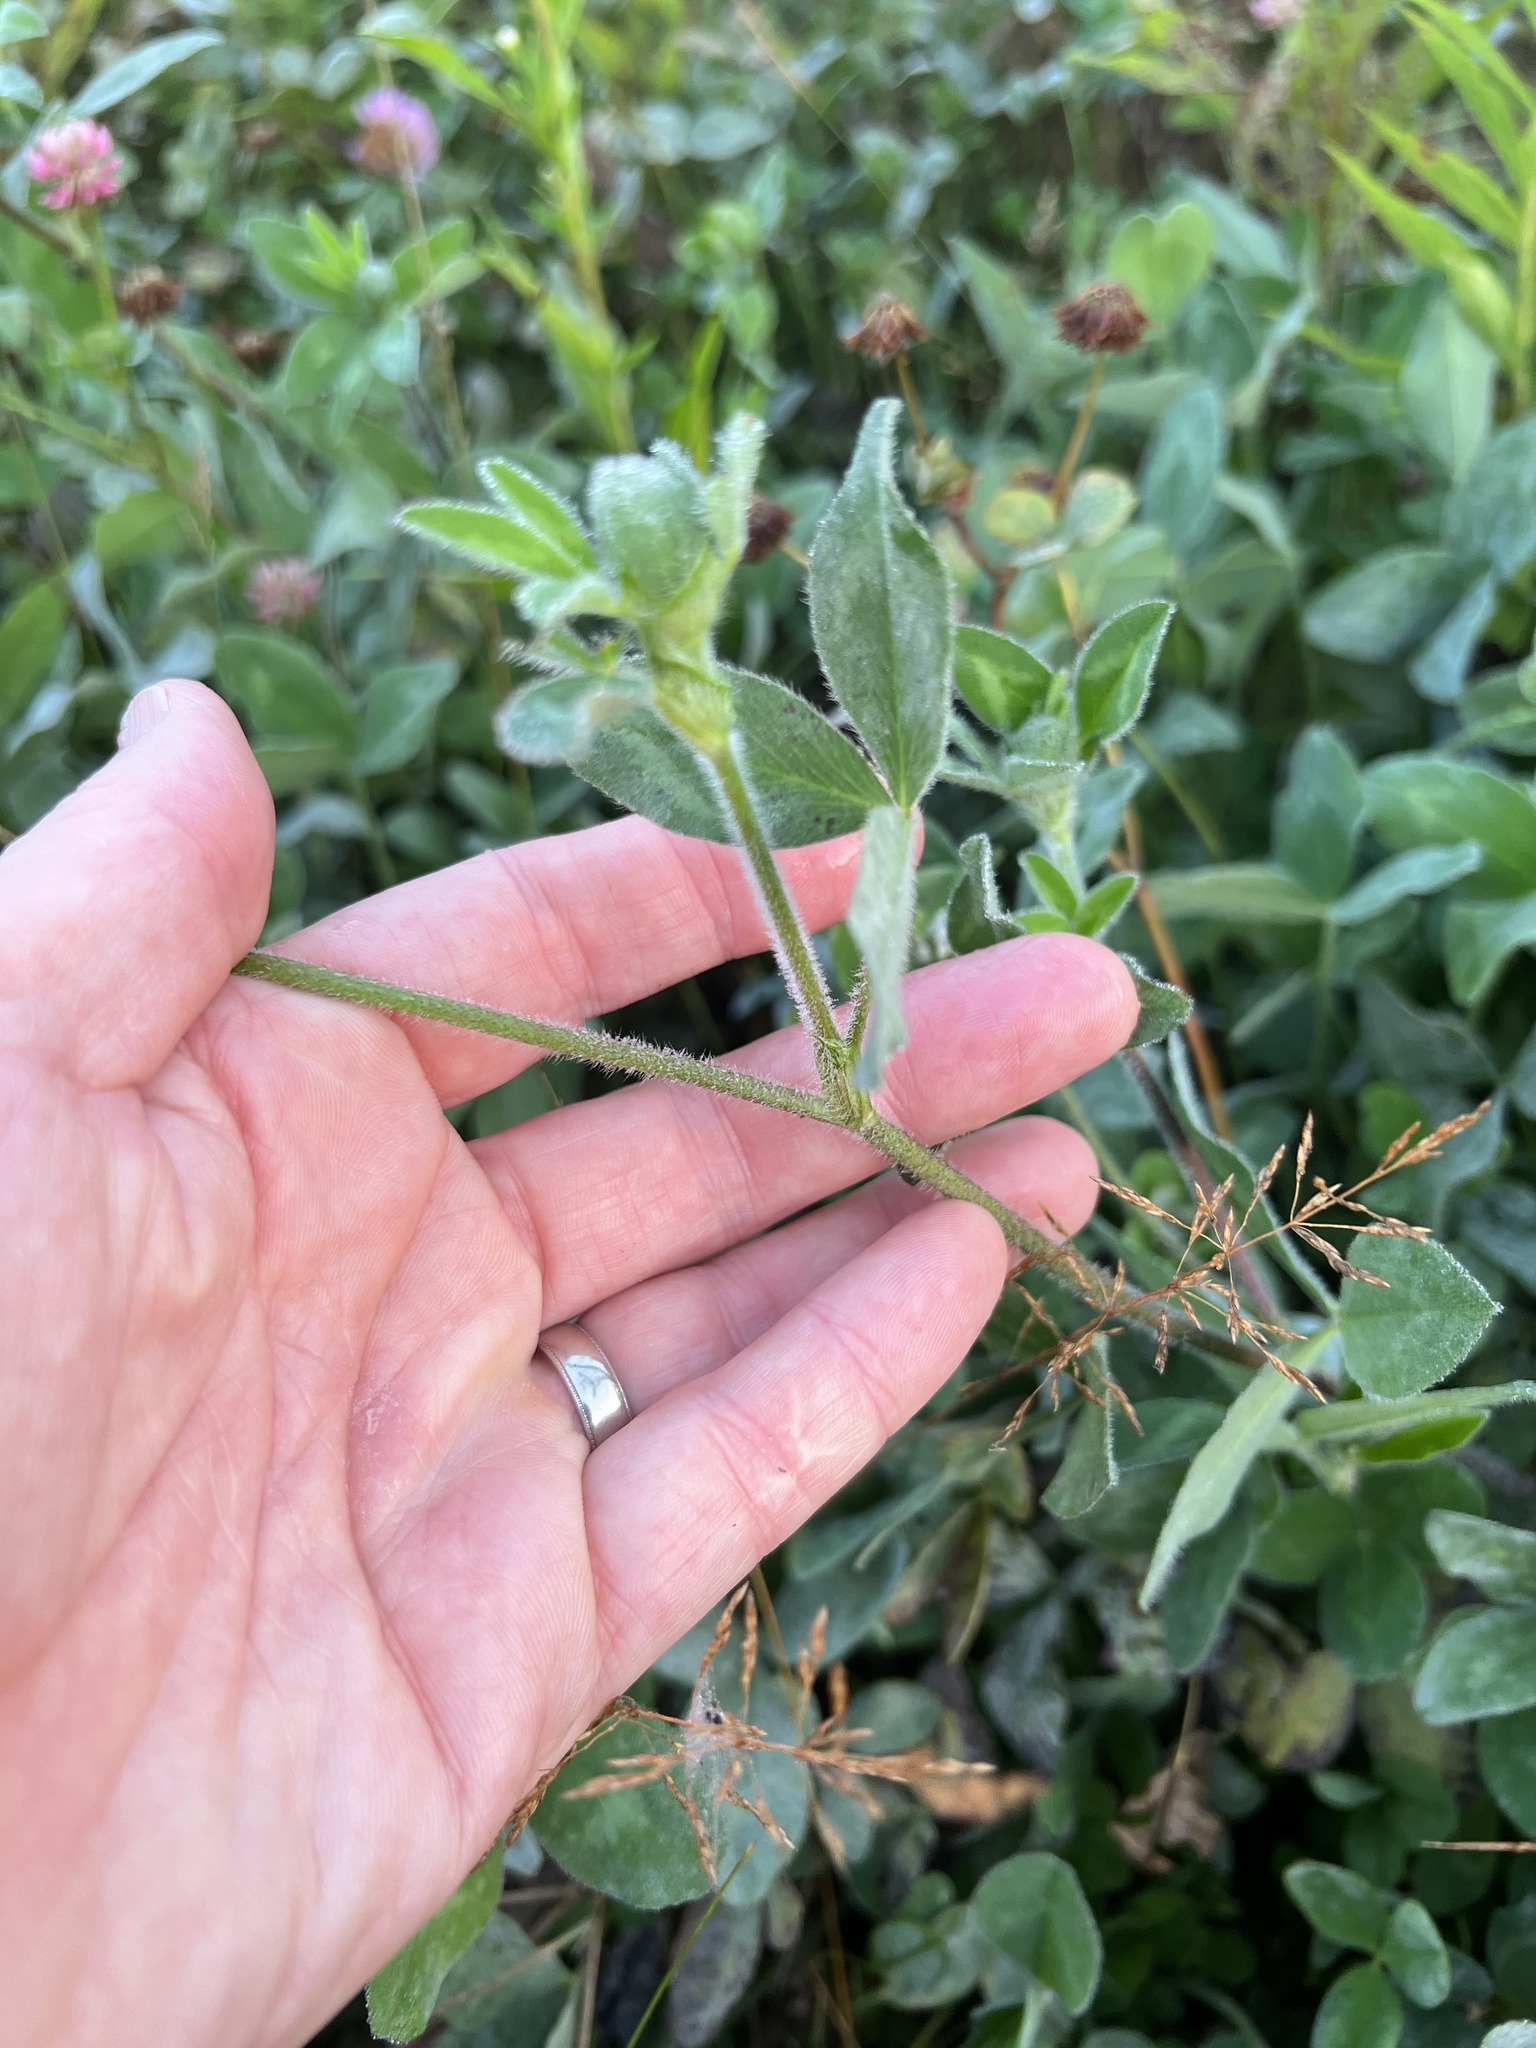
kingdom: Plantae
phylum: Tracheophyta
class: Magnoliopsida
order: Fabales
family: Fabaceae
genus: Trifolium
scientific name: Trifolium pratense
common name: Red clover
